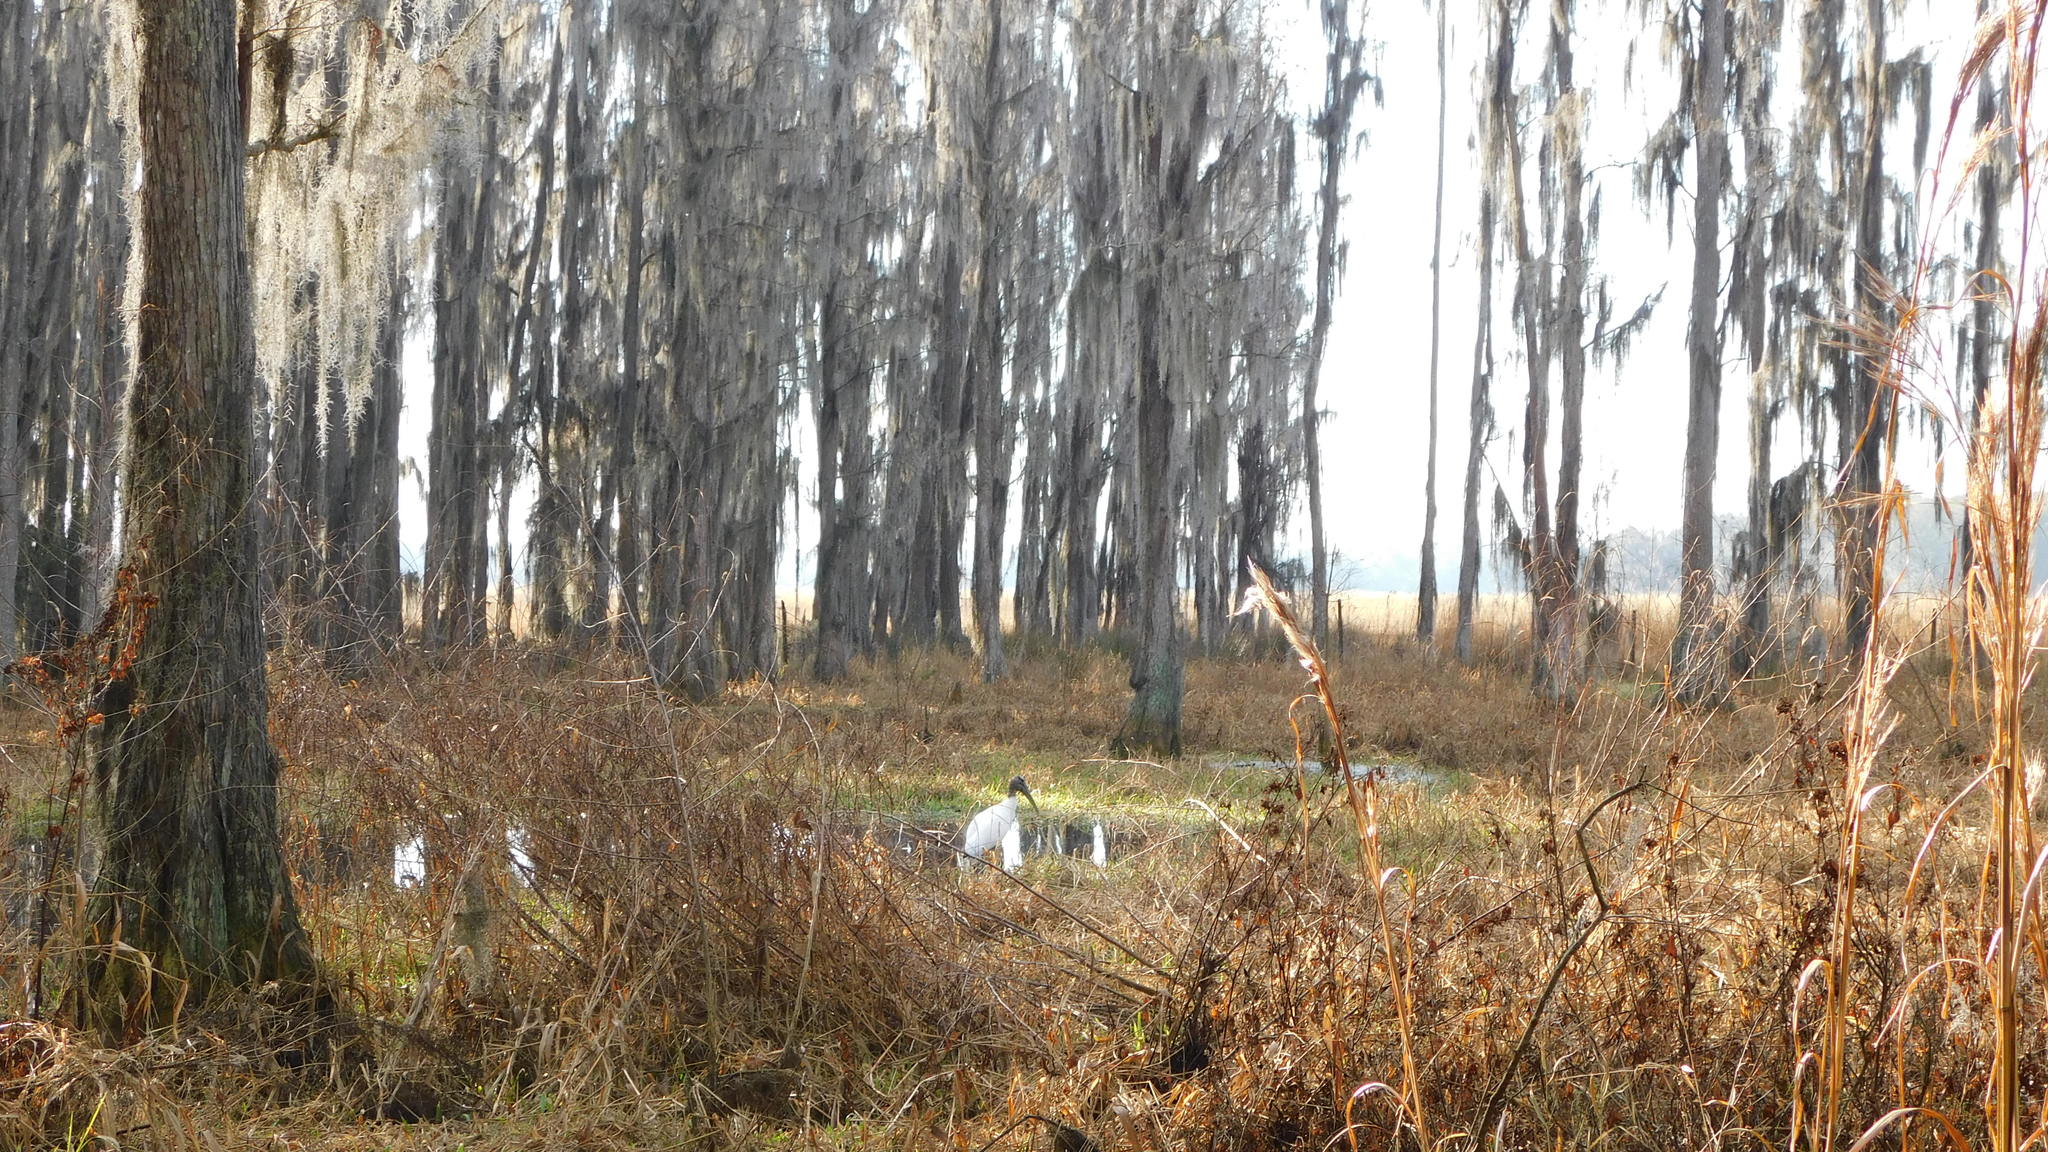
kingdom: Animalia
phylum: Chordata
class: Aves
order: Ciconiiformes
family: Ciconiidae
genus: Mycteria
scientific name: Mycteria americana
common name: Wood stork
